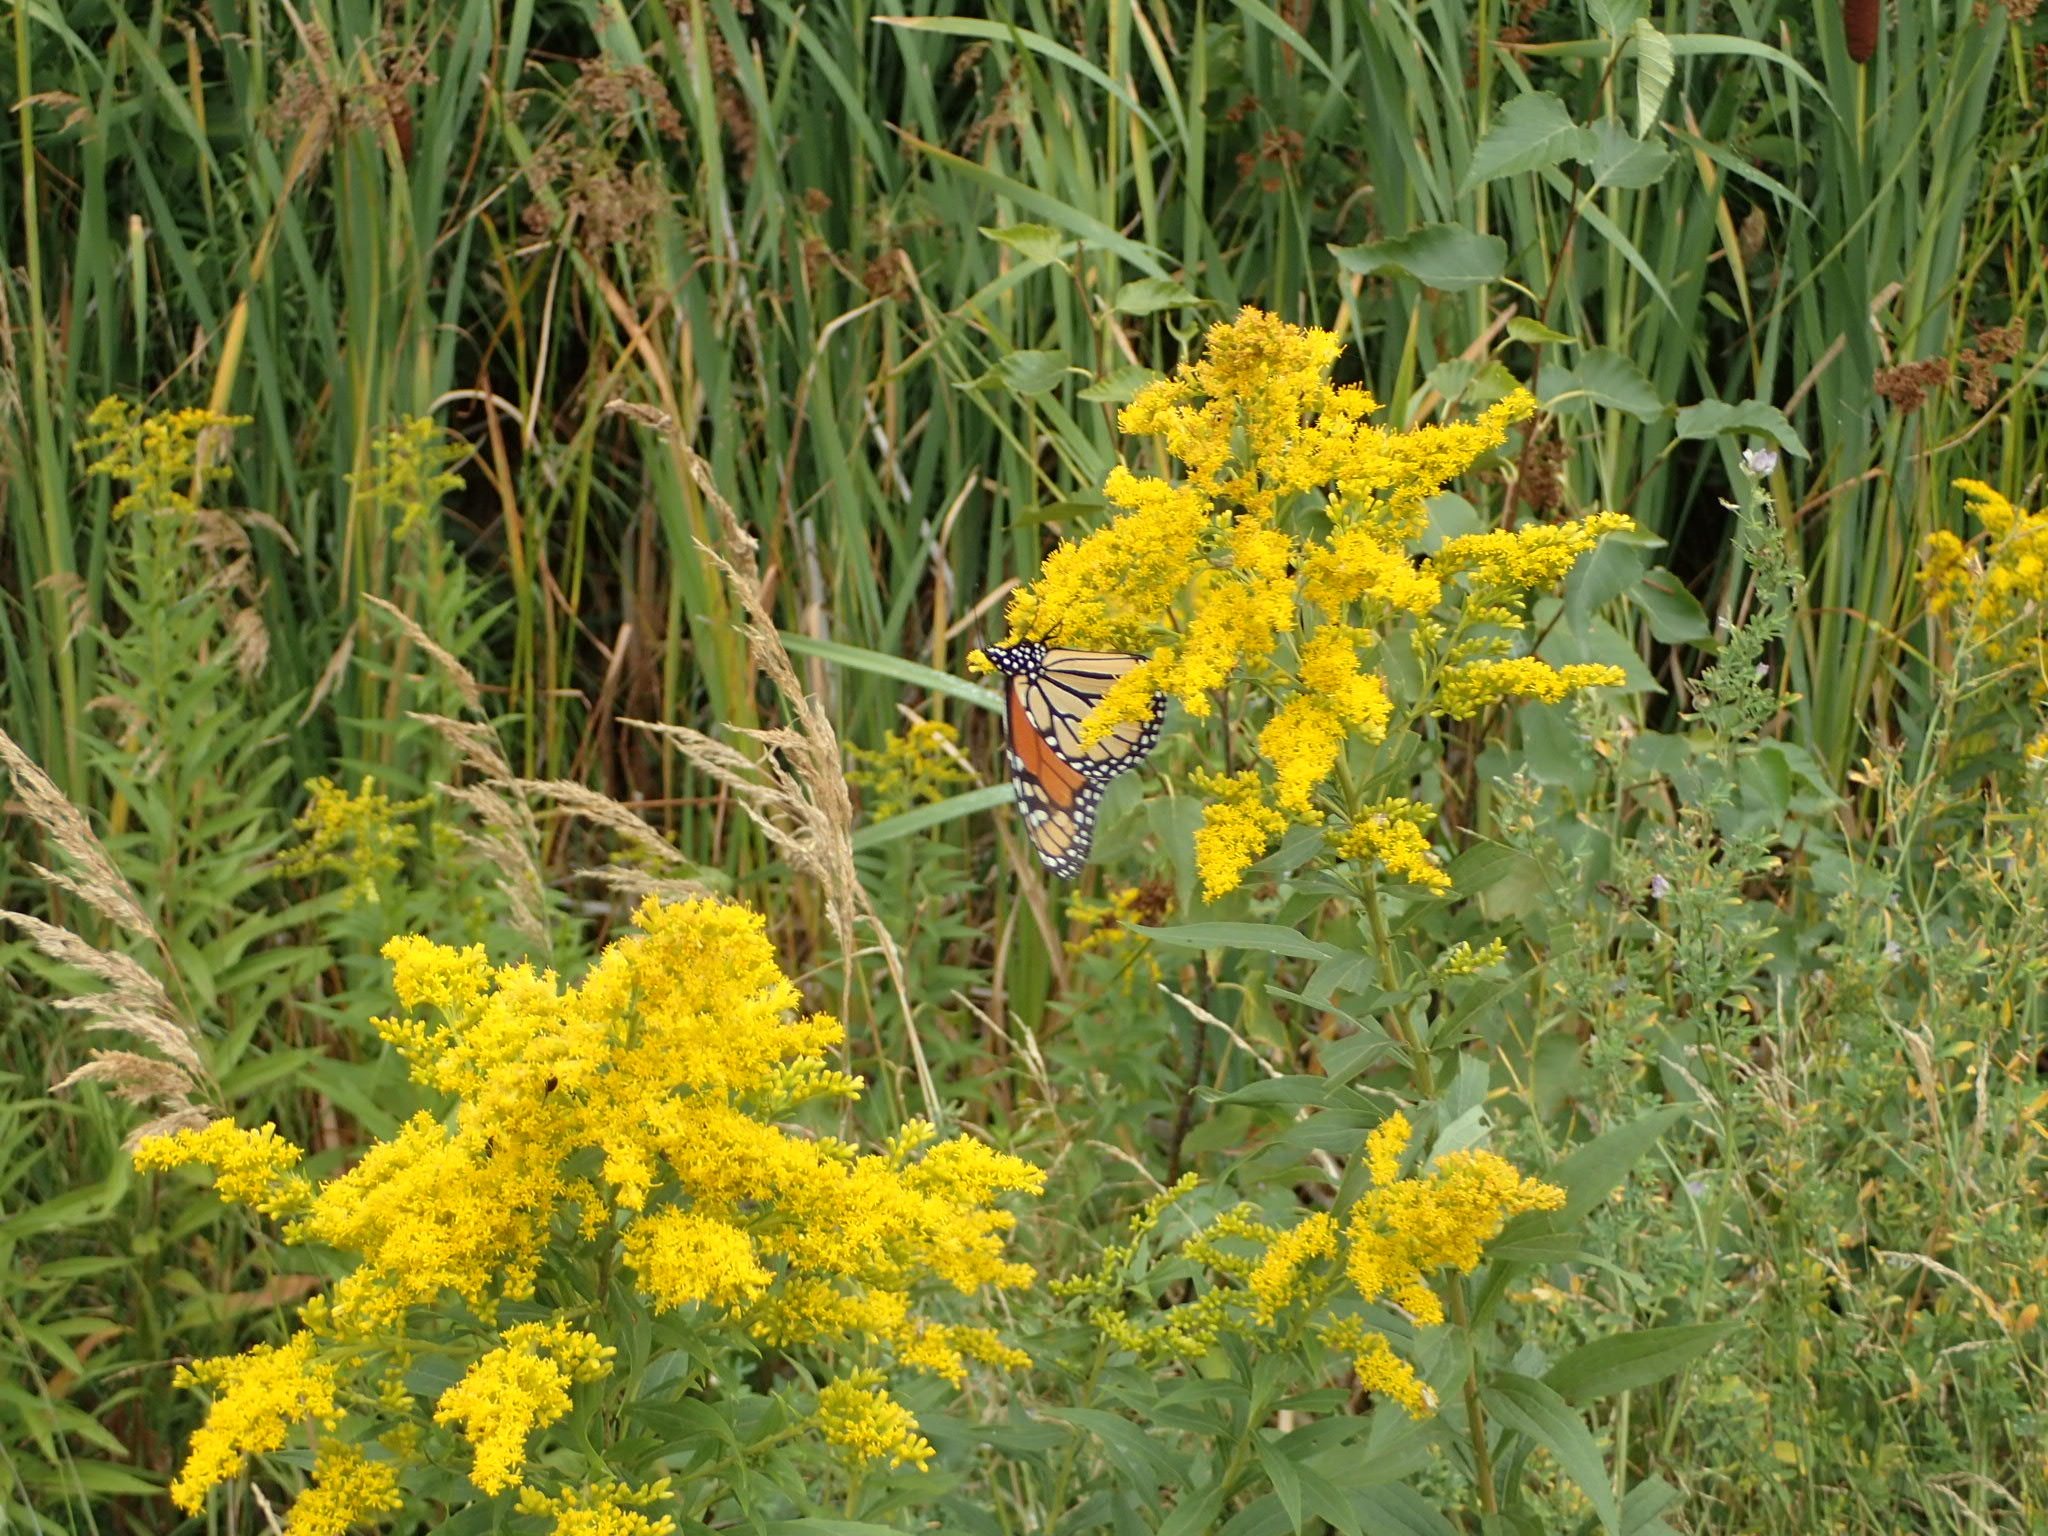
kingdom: Animalia
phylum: Arthropoda
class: Insecta
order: Lepidoptera
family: Nymphalidae
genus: Danaus
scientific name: Danaus plexippus
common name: Monarch
